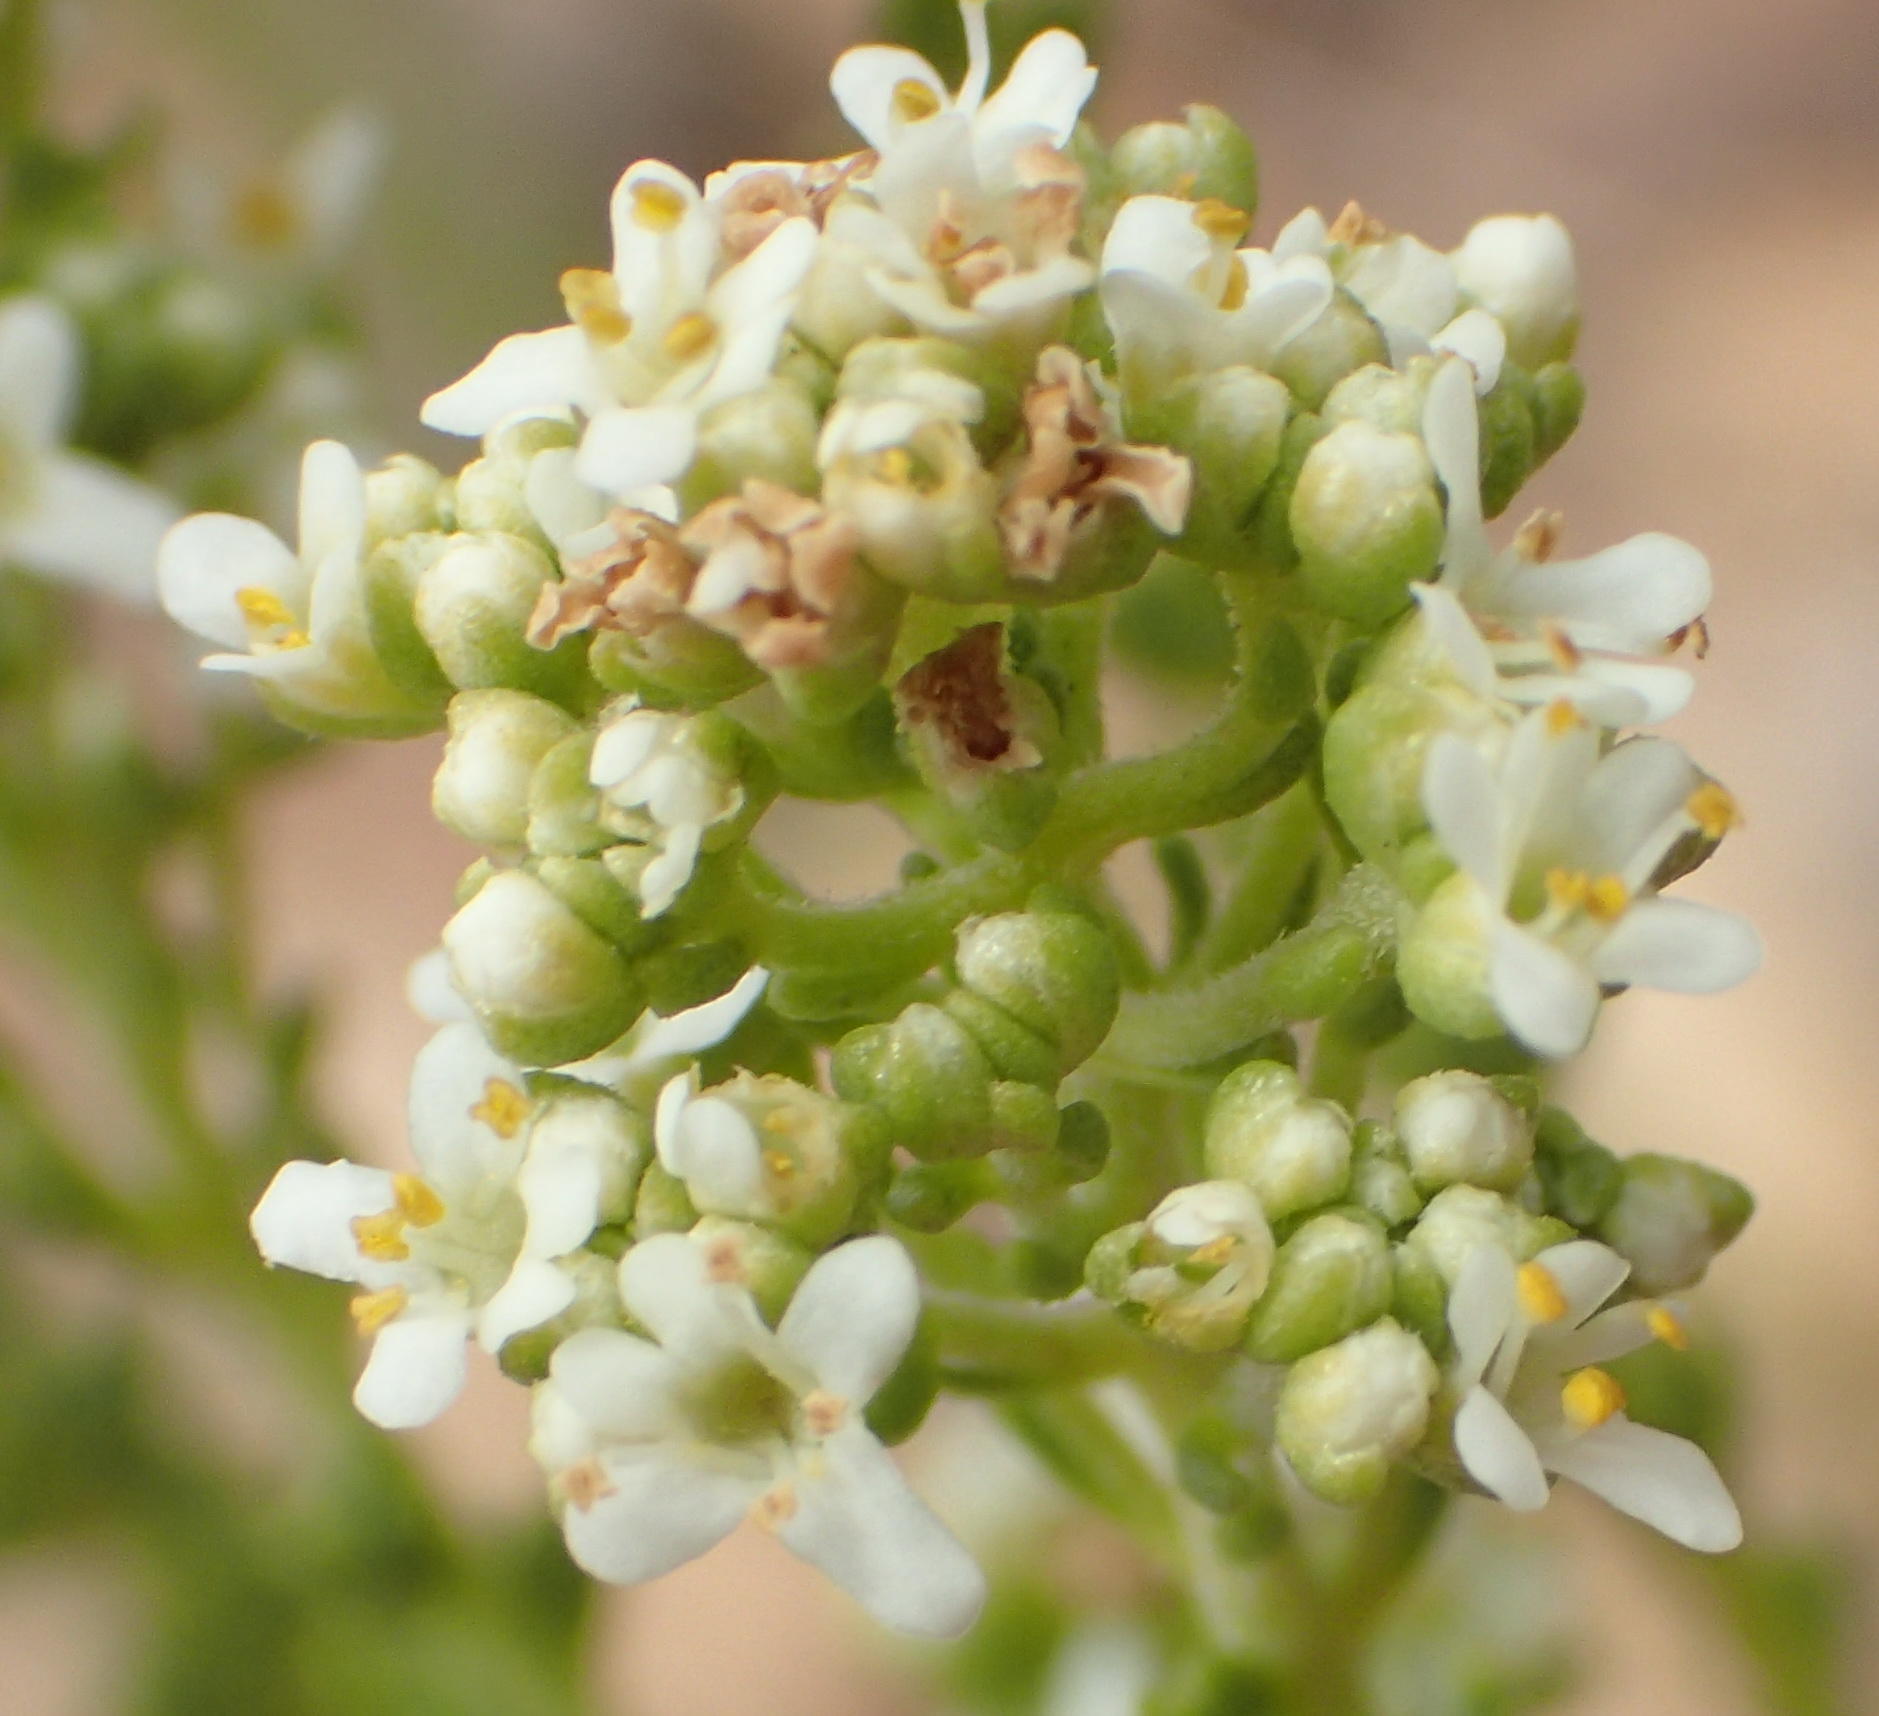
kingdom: Plantae
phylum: Tracheophyta
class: Magnoliopsida
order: Lamiales
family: Scrophulariaceae
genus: Selago
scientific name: Selago myriophylla
